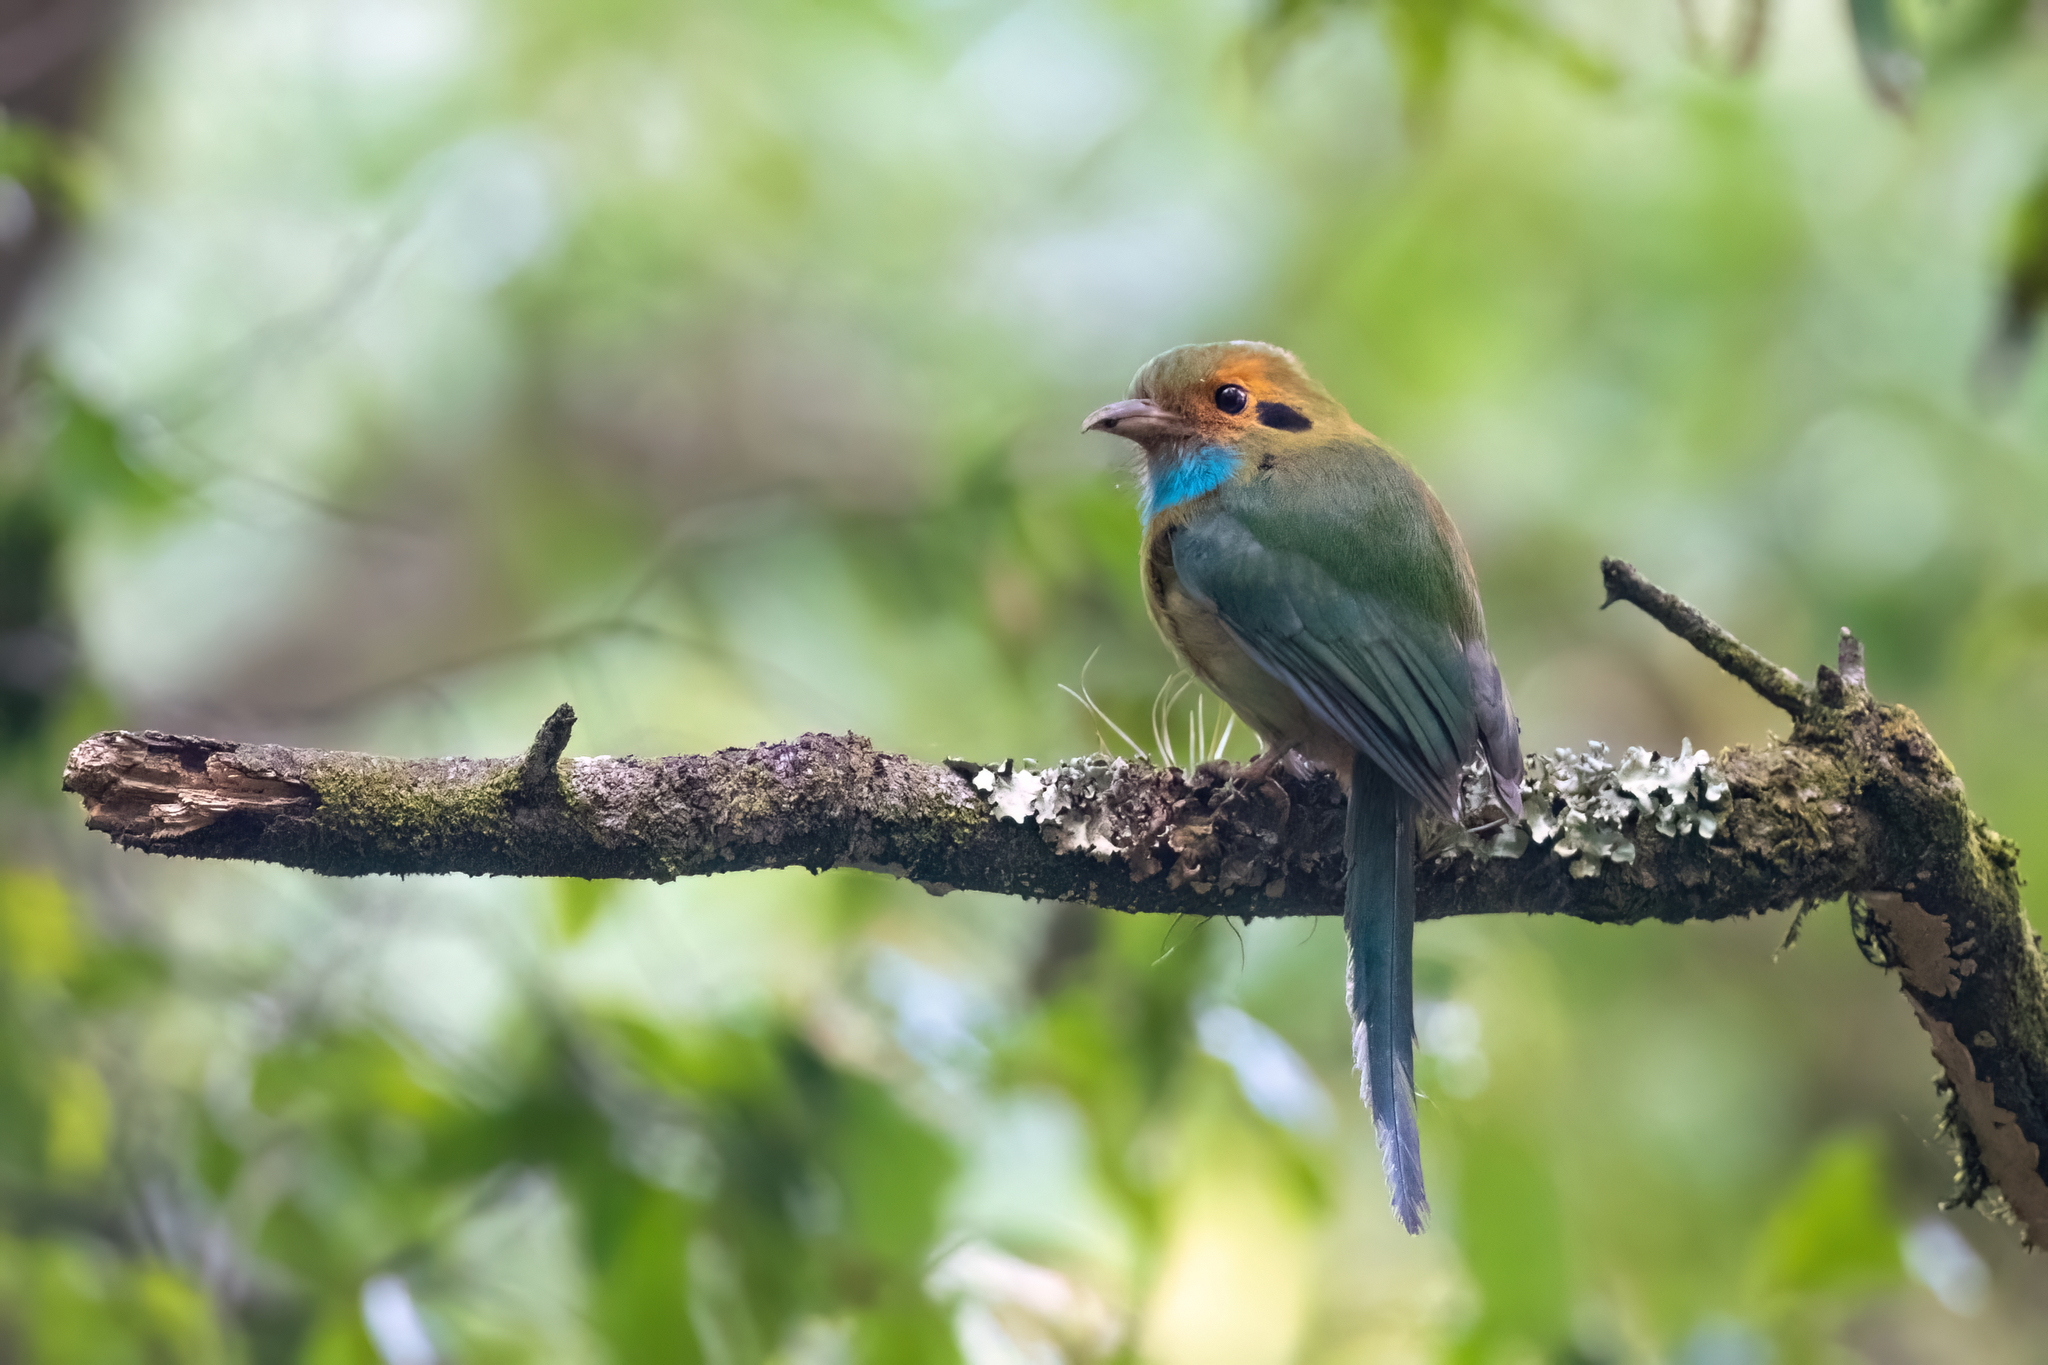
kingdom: Animalia
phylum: Chordata
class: Aves
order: Coraciiformes
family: Momotidae
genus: Aspatha
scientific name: Aspatha gularis
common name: Blue-throated motmot
